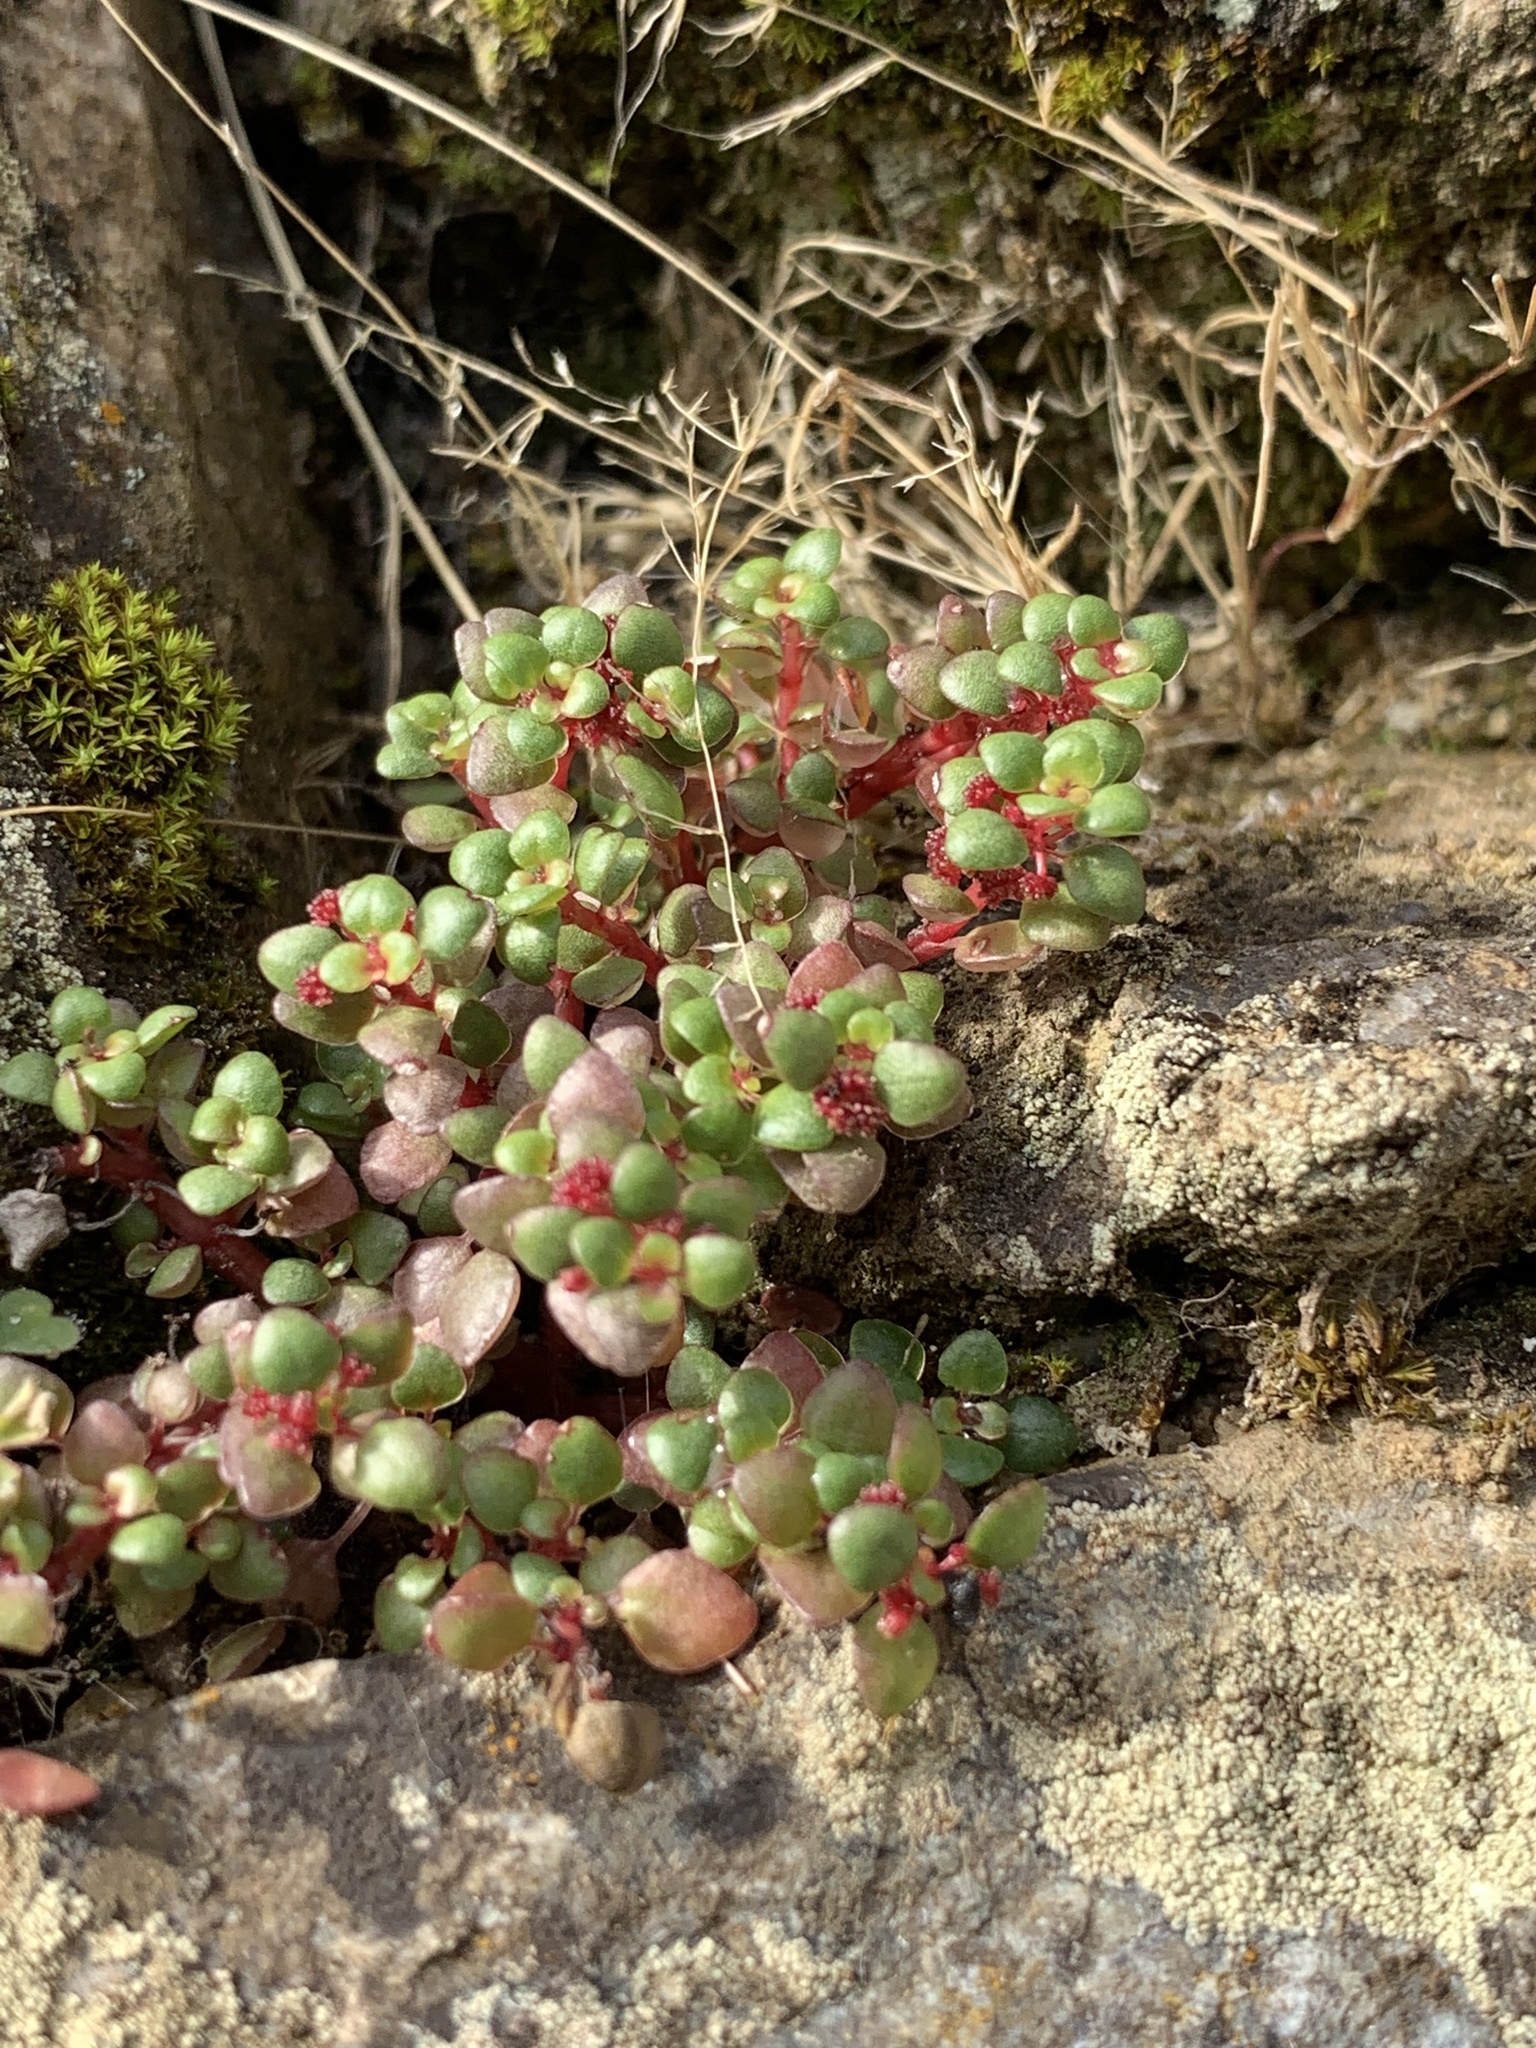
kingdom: Plantae
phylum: Tracheophyta
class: Magnoliopsida
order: Rosales
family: Urticaceae
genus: Pilea
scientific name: Pilea serpyllacea
